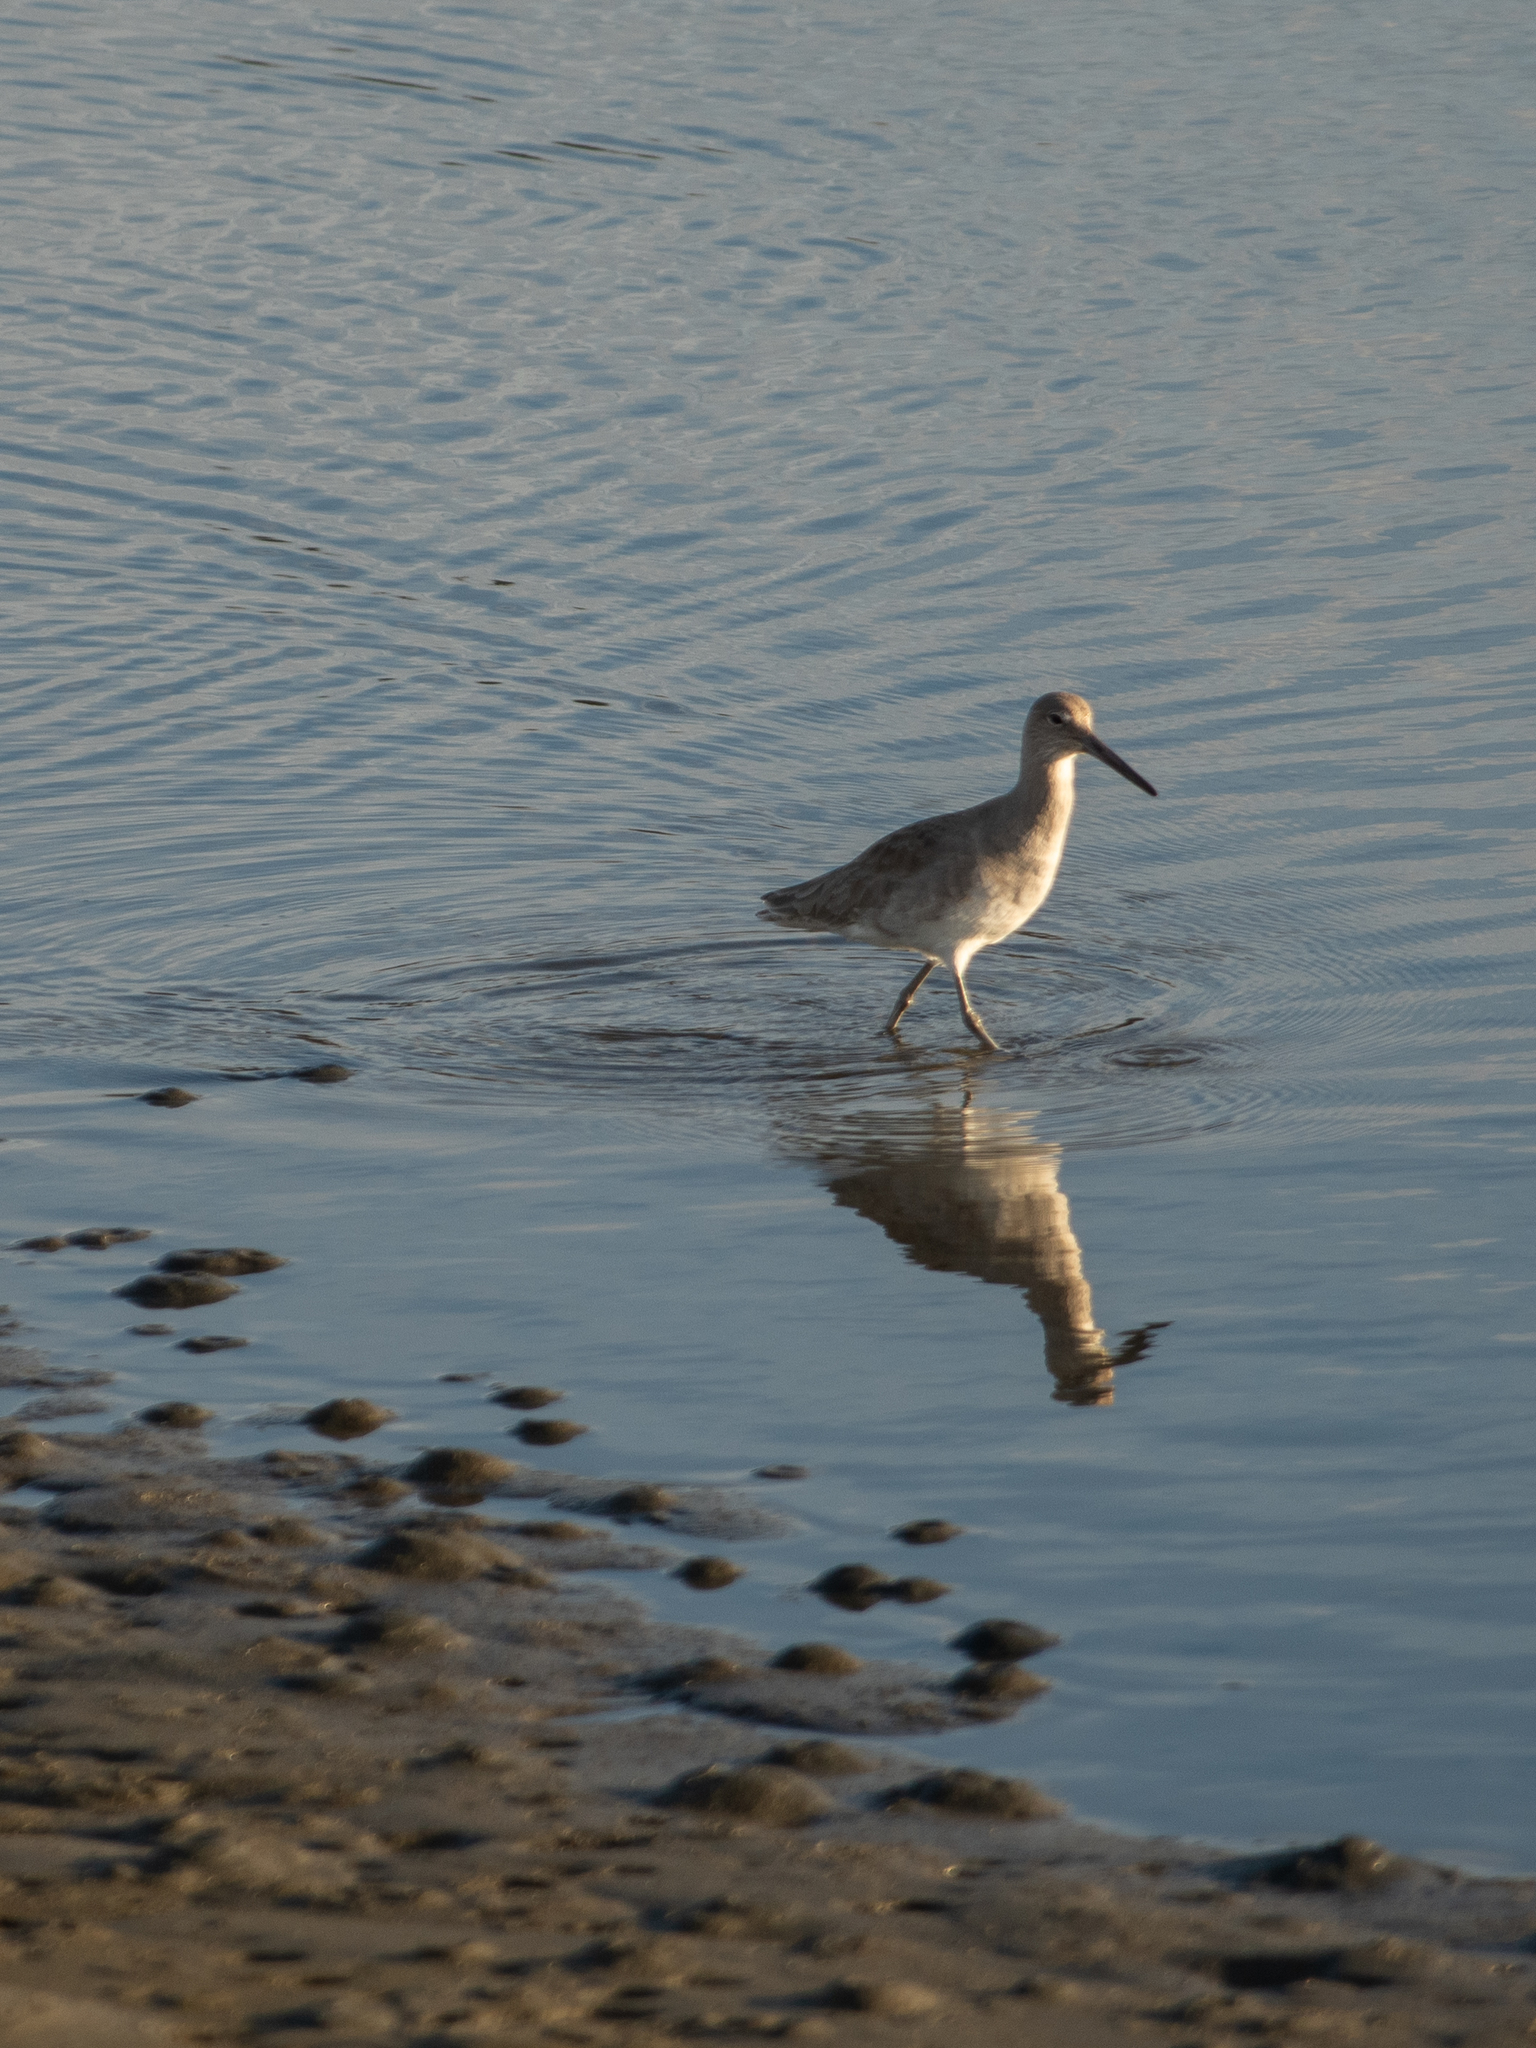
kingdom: Animalia
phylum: Chordata
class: Aves
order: Charadriiformes
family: Scolopacidae
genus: Tringa
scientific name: Tringa semipalmata
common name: Willet
